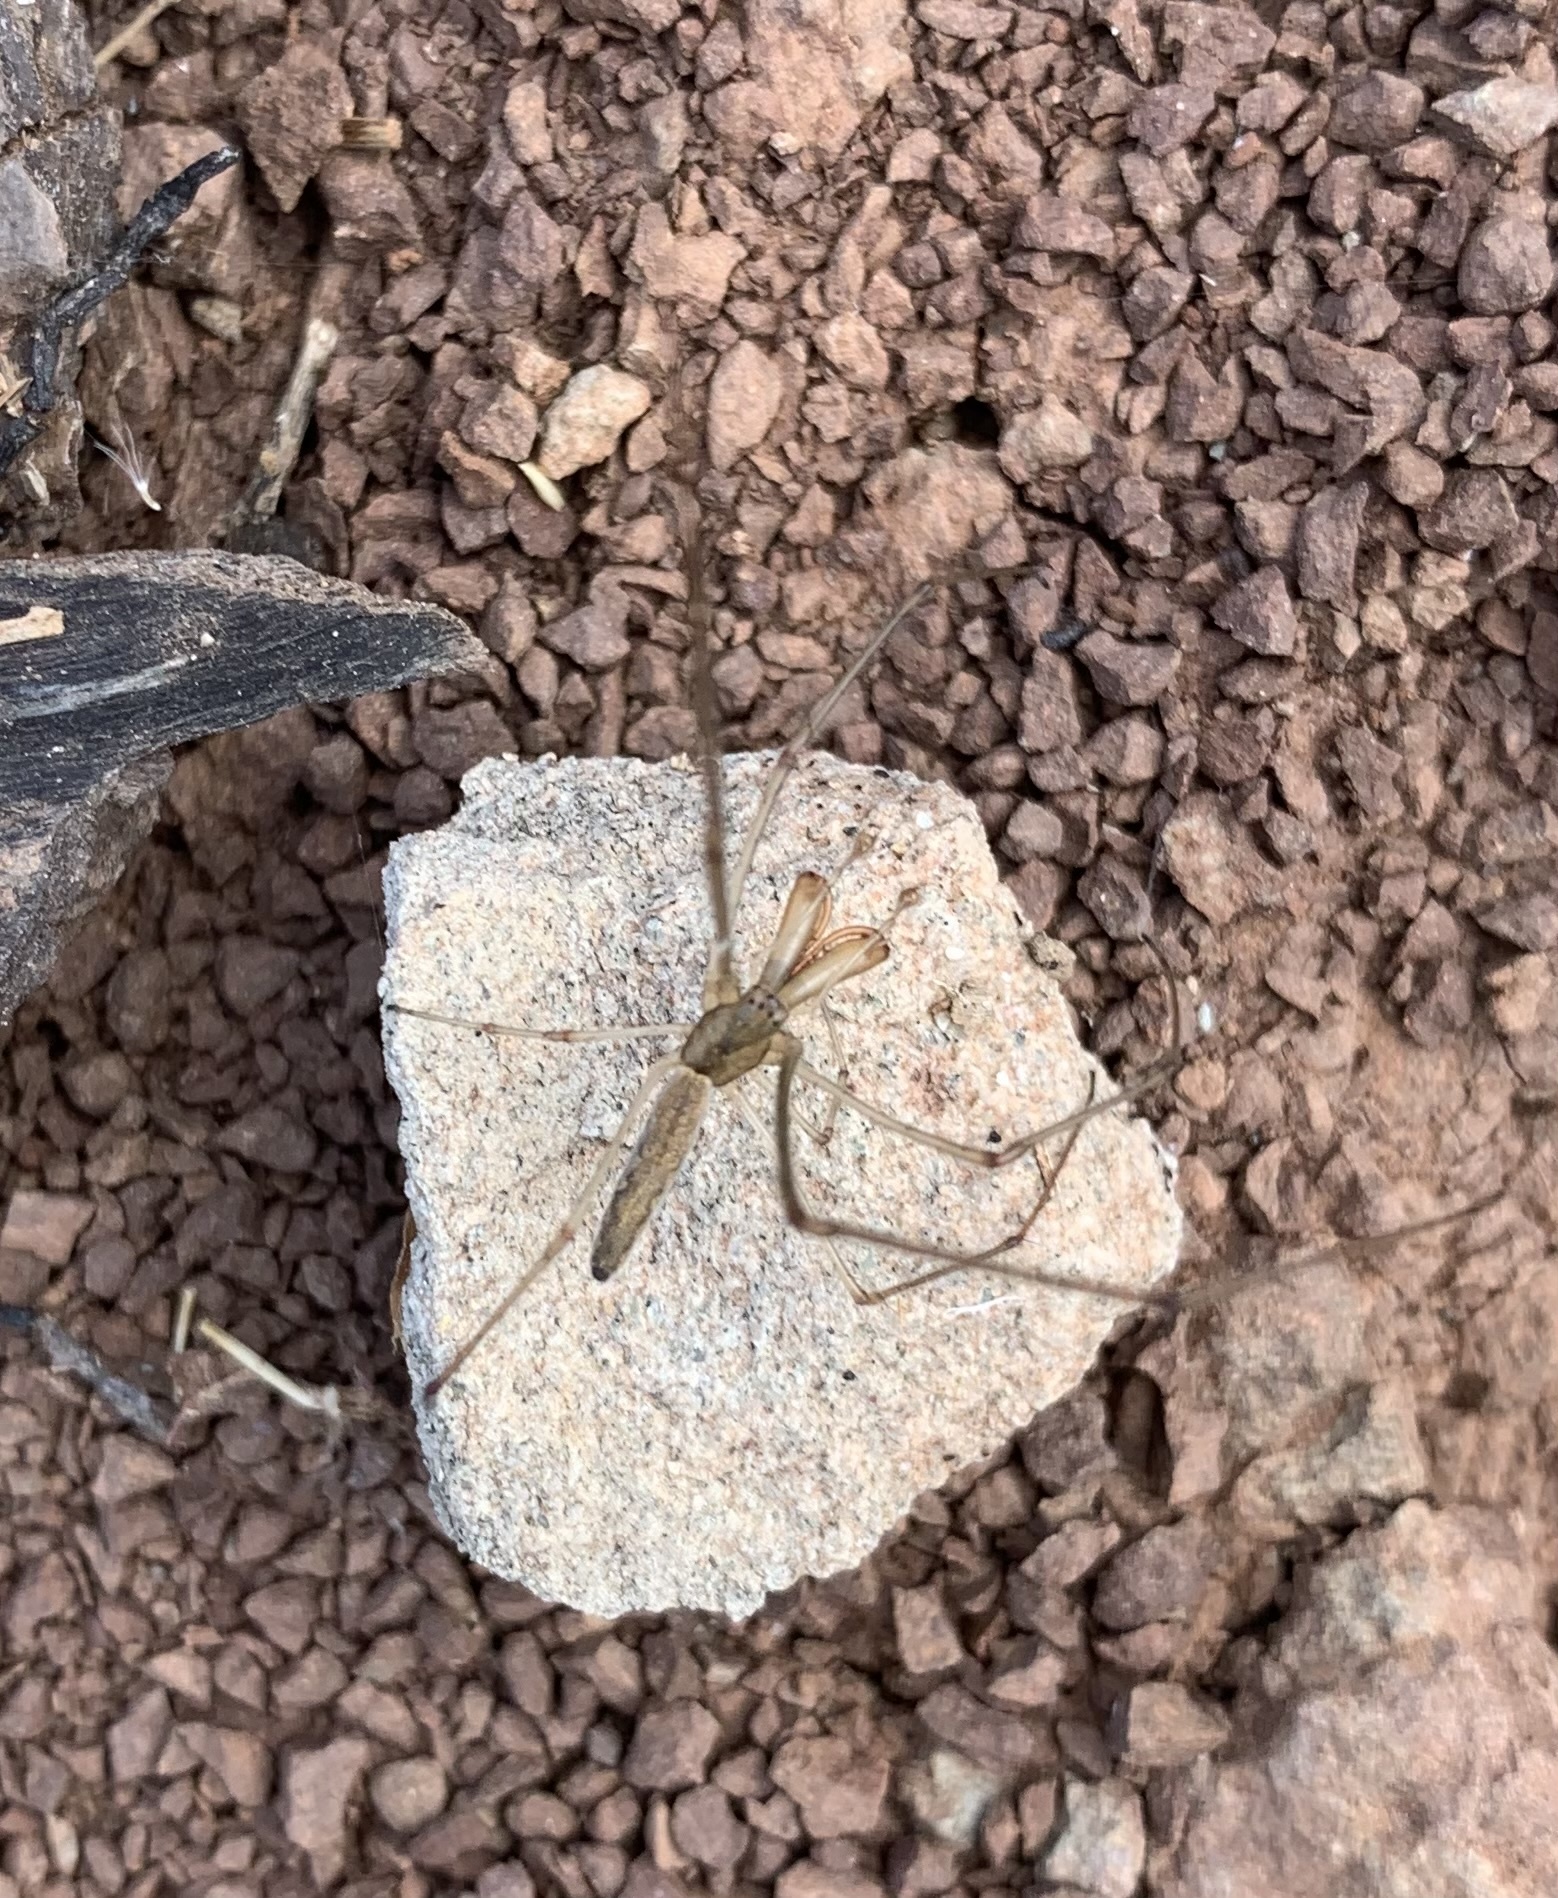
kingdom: Animalia
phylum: Arthropoda
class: Arachnida
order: Araneae
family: Tetragnathidae
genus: Tetragnatha
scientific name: Tetragnatha laboriosa
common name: Longjawed orb weavers
